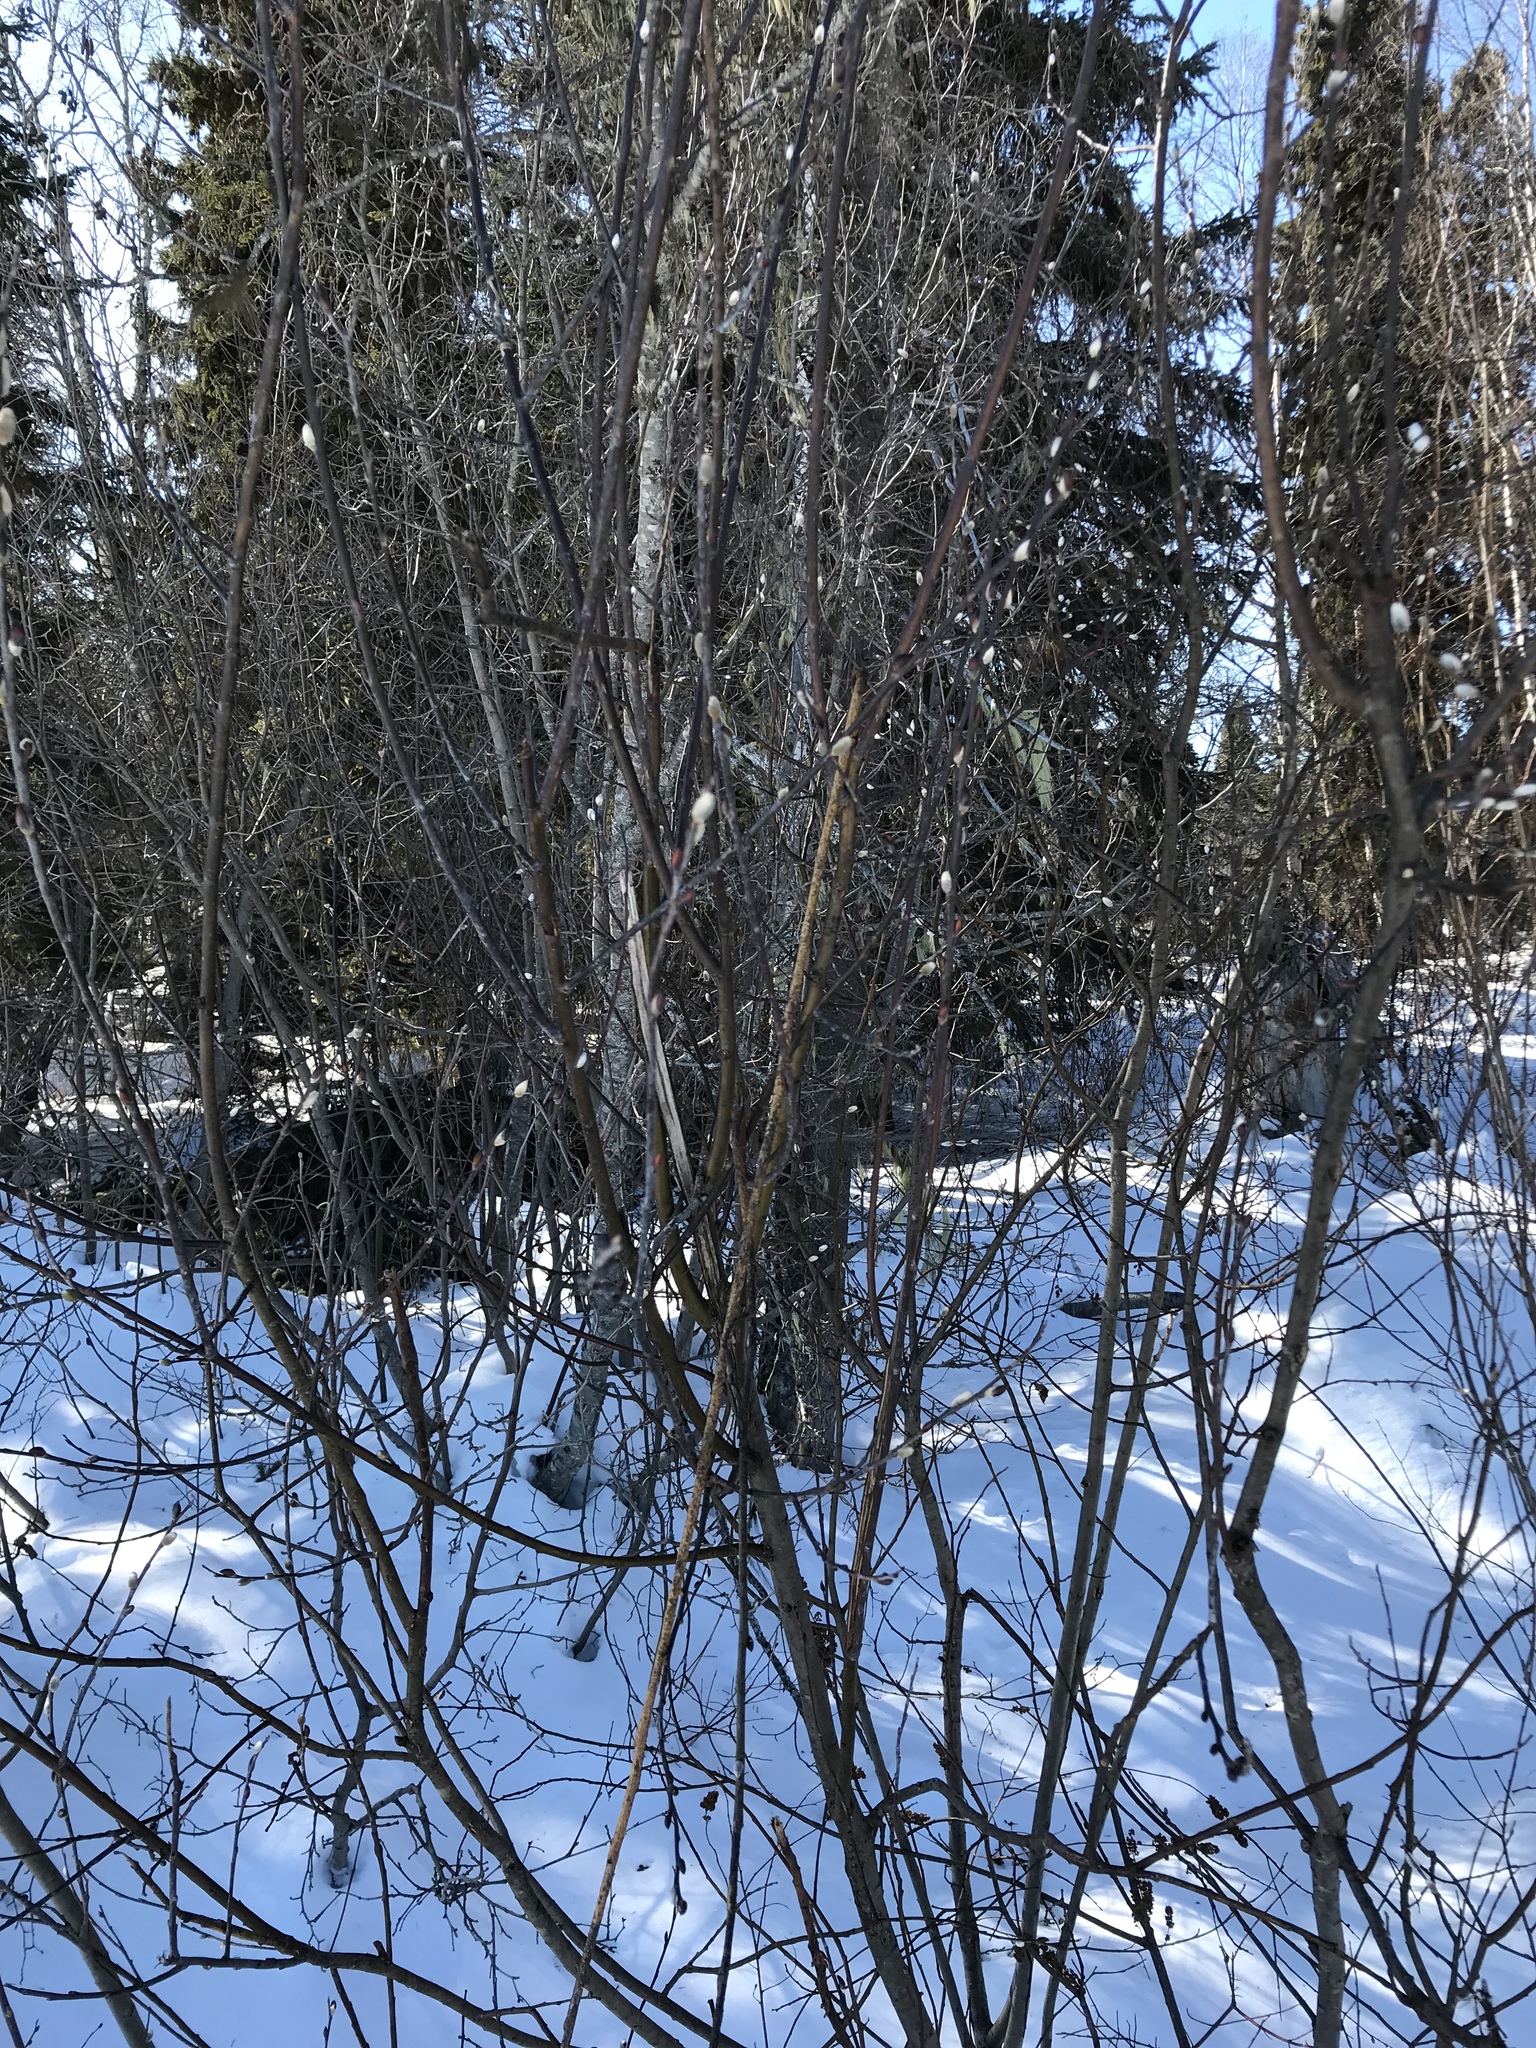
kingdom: Plantae
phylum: Tracheophyta
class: Magnoliopsida
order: Malpighiales
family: Salicaceae
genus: Salix
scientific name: Salix discolor
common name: Glaucous willow
